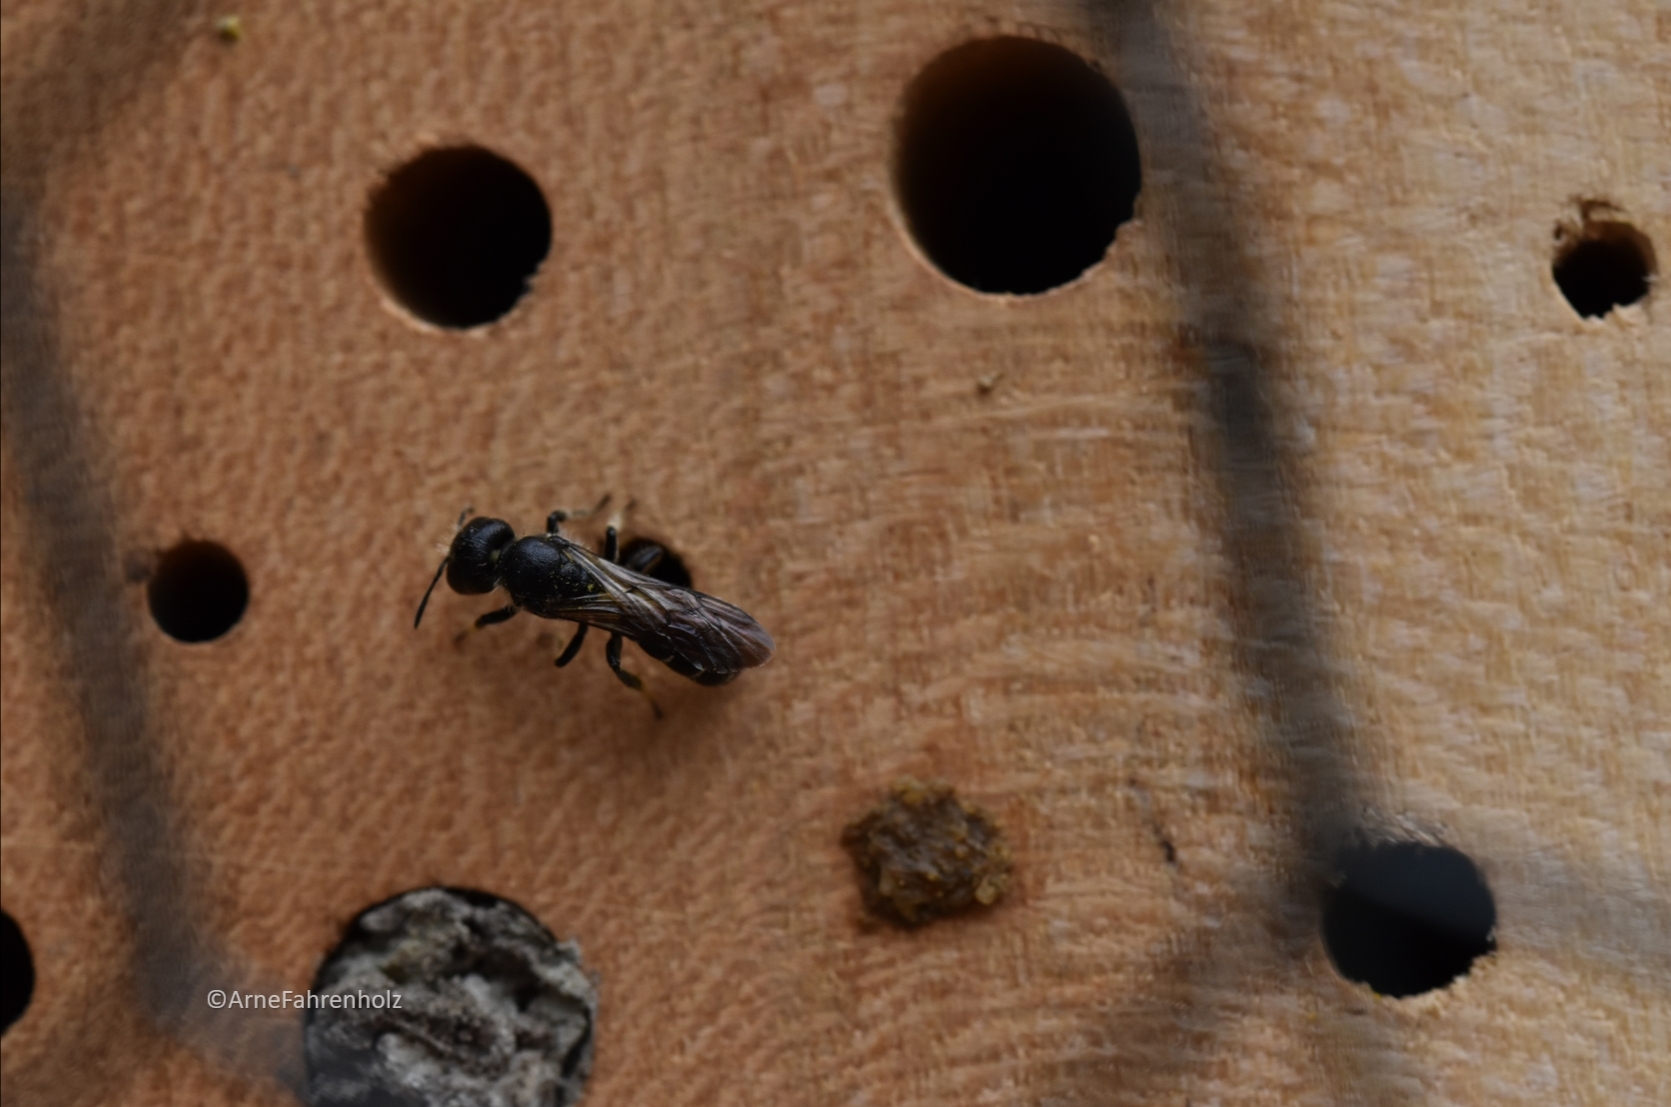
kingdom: Animalia
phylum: Arthropoda
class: Insecta
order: Hymenoptera
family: Megachilidae
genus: Chelostoma
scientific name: Chelostoma florisomne
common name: Sleepy carpenter bee
